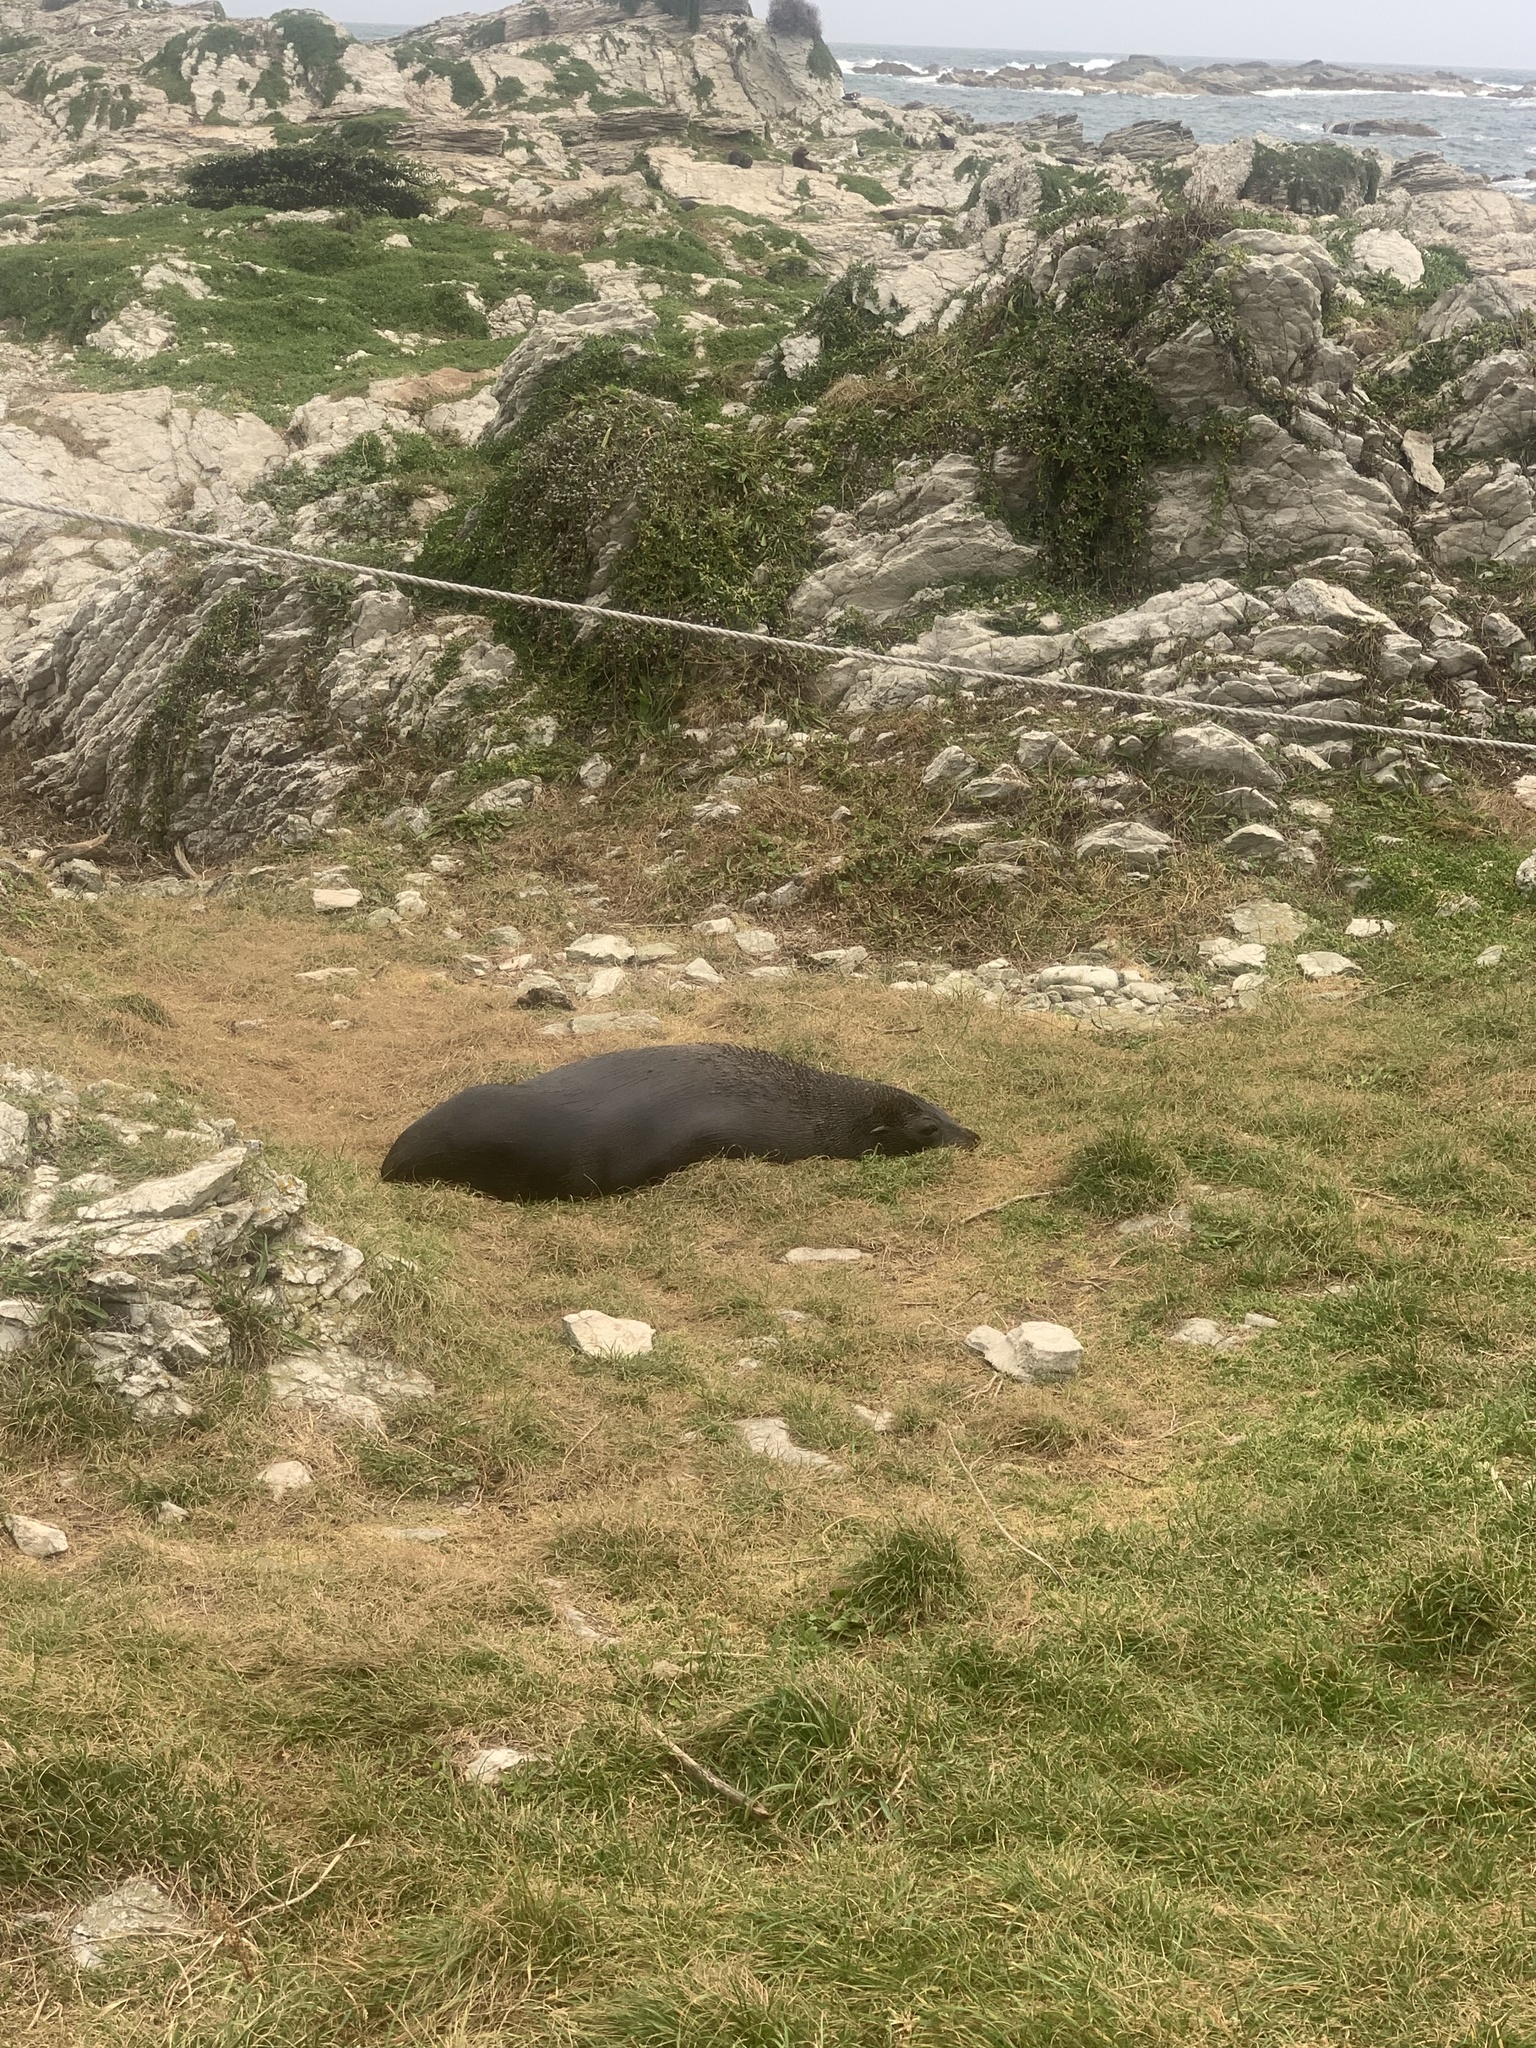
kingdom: Animalia
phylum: Chordata
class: Mammalia
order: Carnivora
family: Otariidae
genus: Arctocephalus
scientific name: Arctocephalus forsteri
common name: New zealand fur seal
